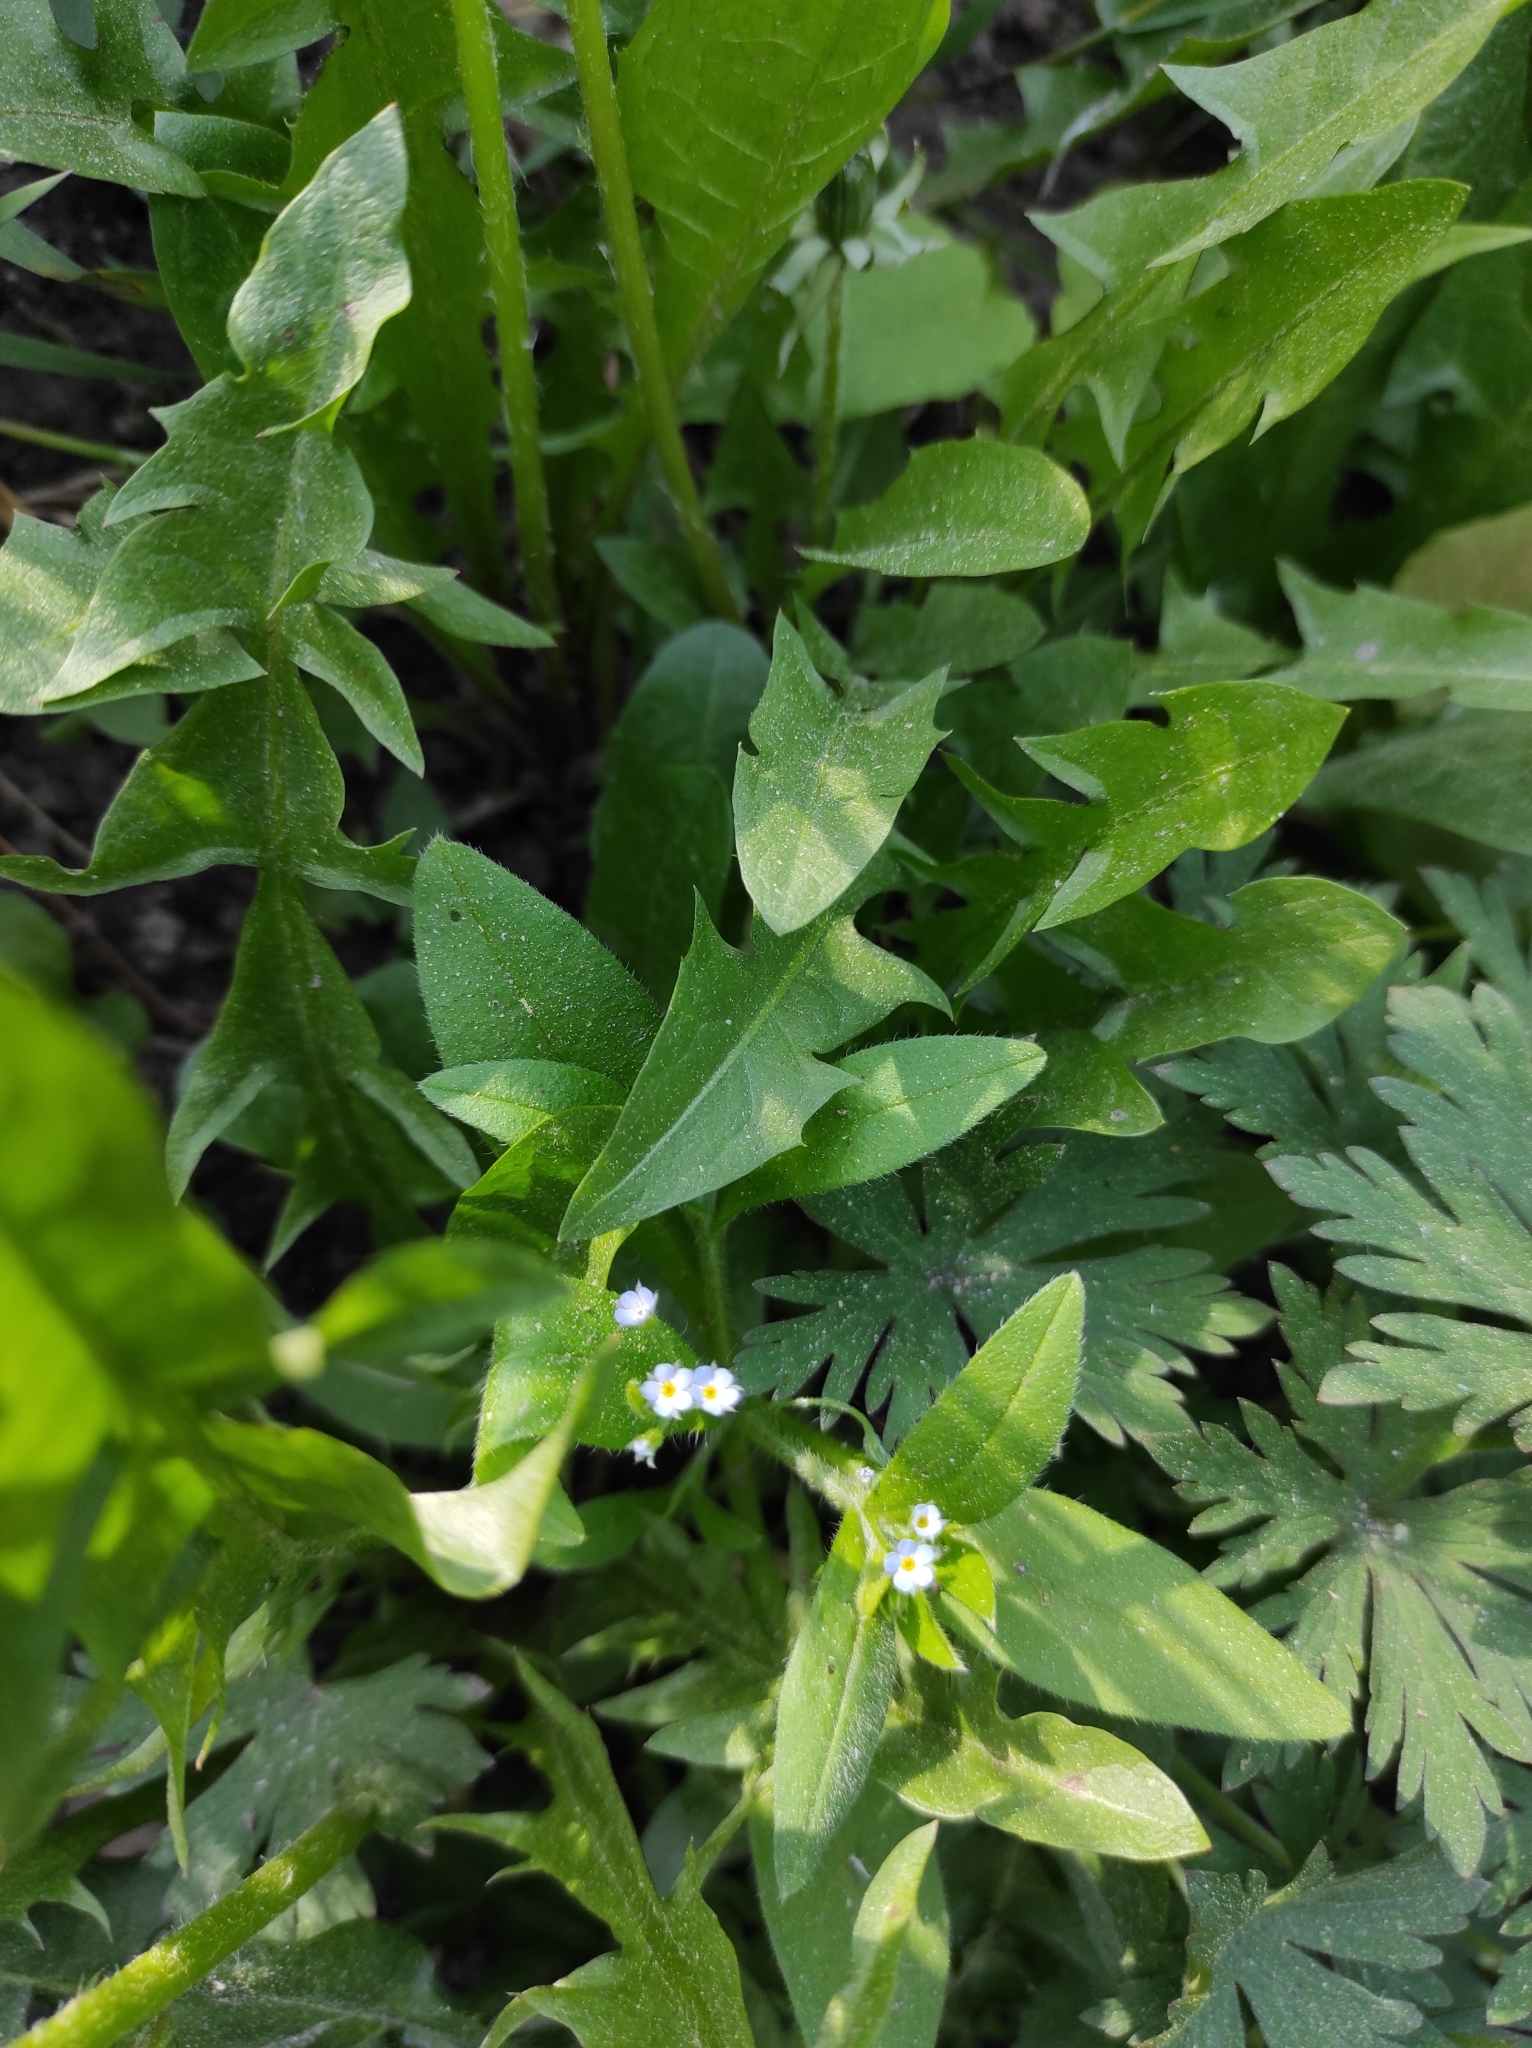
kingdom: Plantae
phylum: Tracheophyta
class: Magnoliopsida
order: Boraginales
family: Boraginaceae
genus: Myosotis
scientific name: Myosotis sparsiflora
